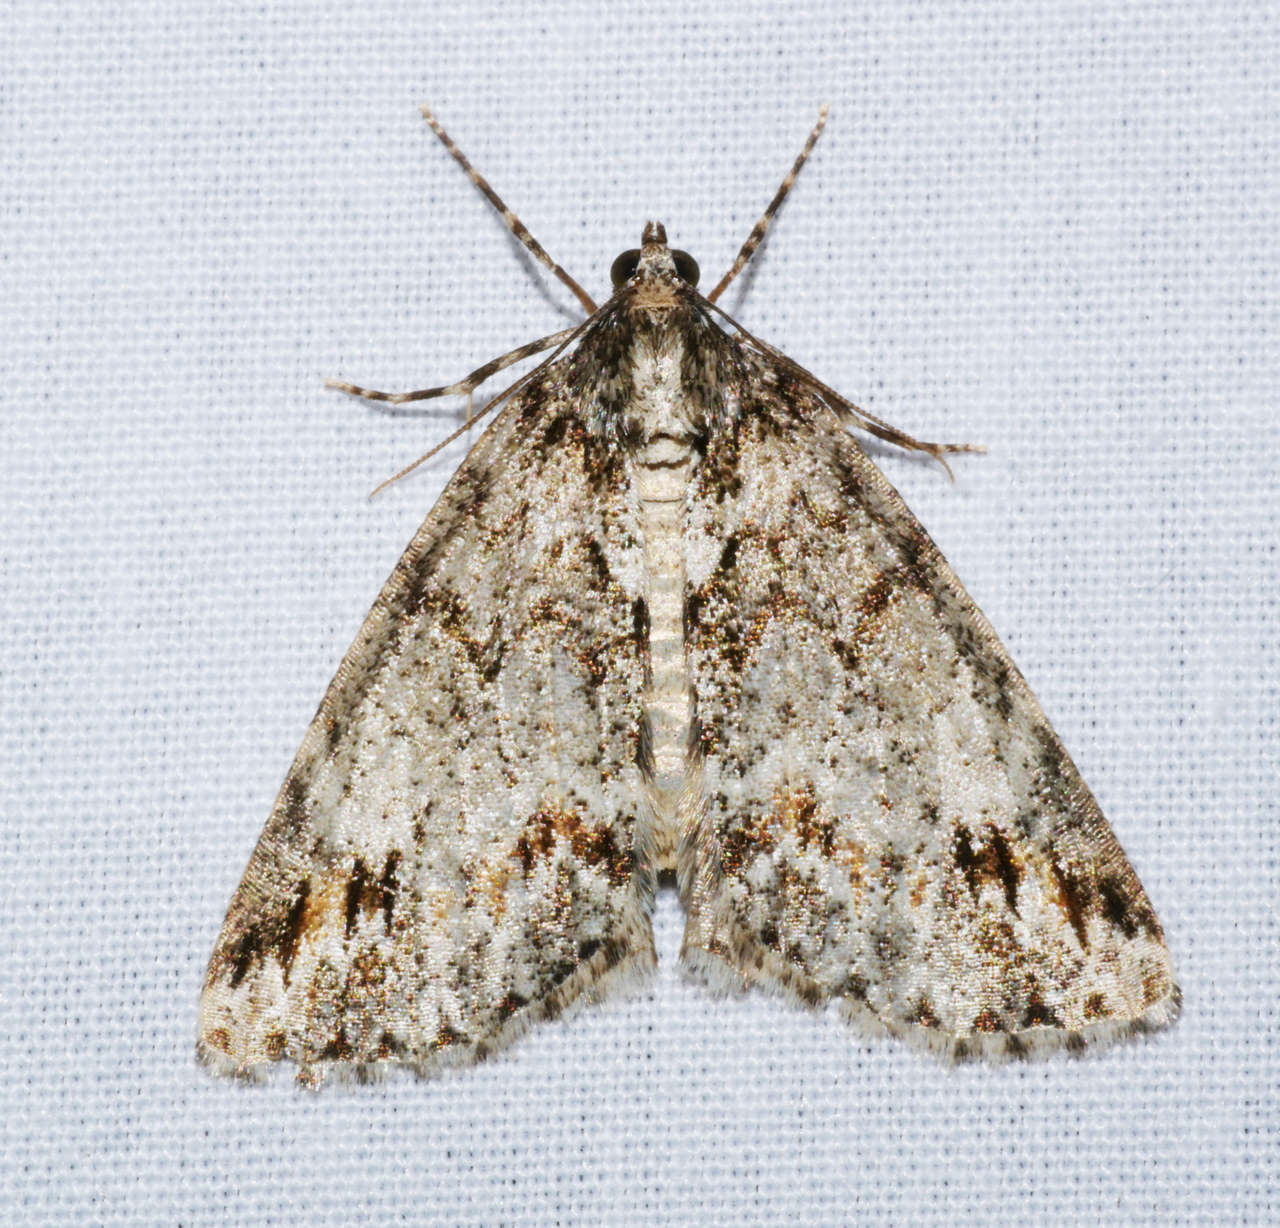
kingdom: Animalia
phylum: Arthropoda
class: Insecta
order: Lepidoptera
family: Geometridae
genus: Middletonia
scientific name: Middletonia suavis
